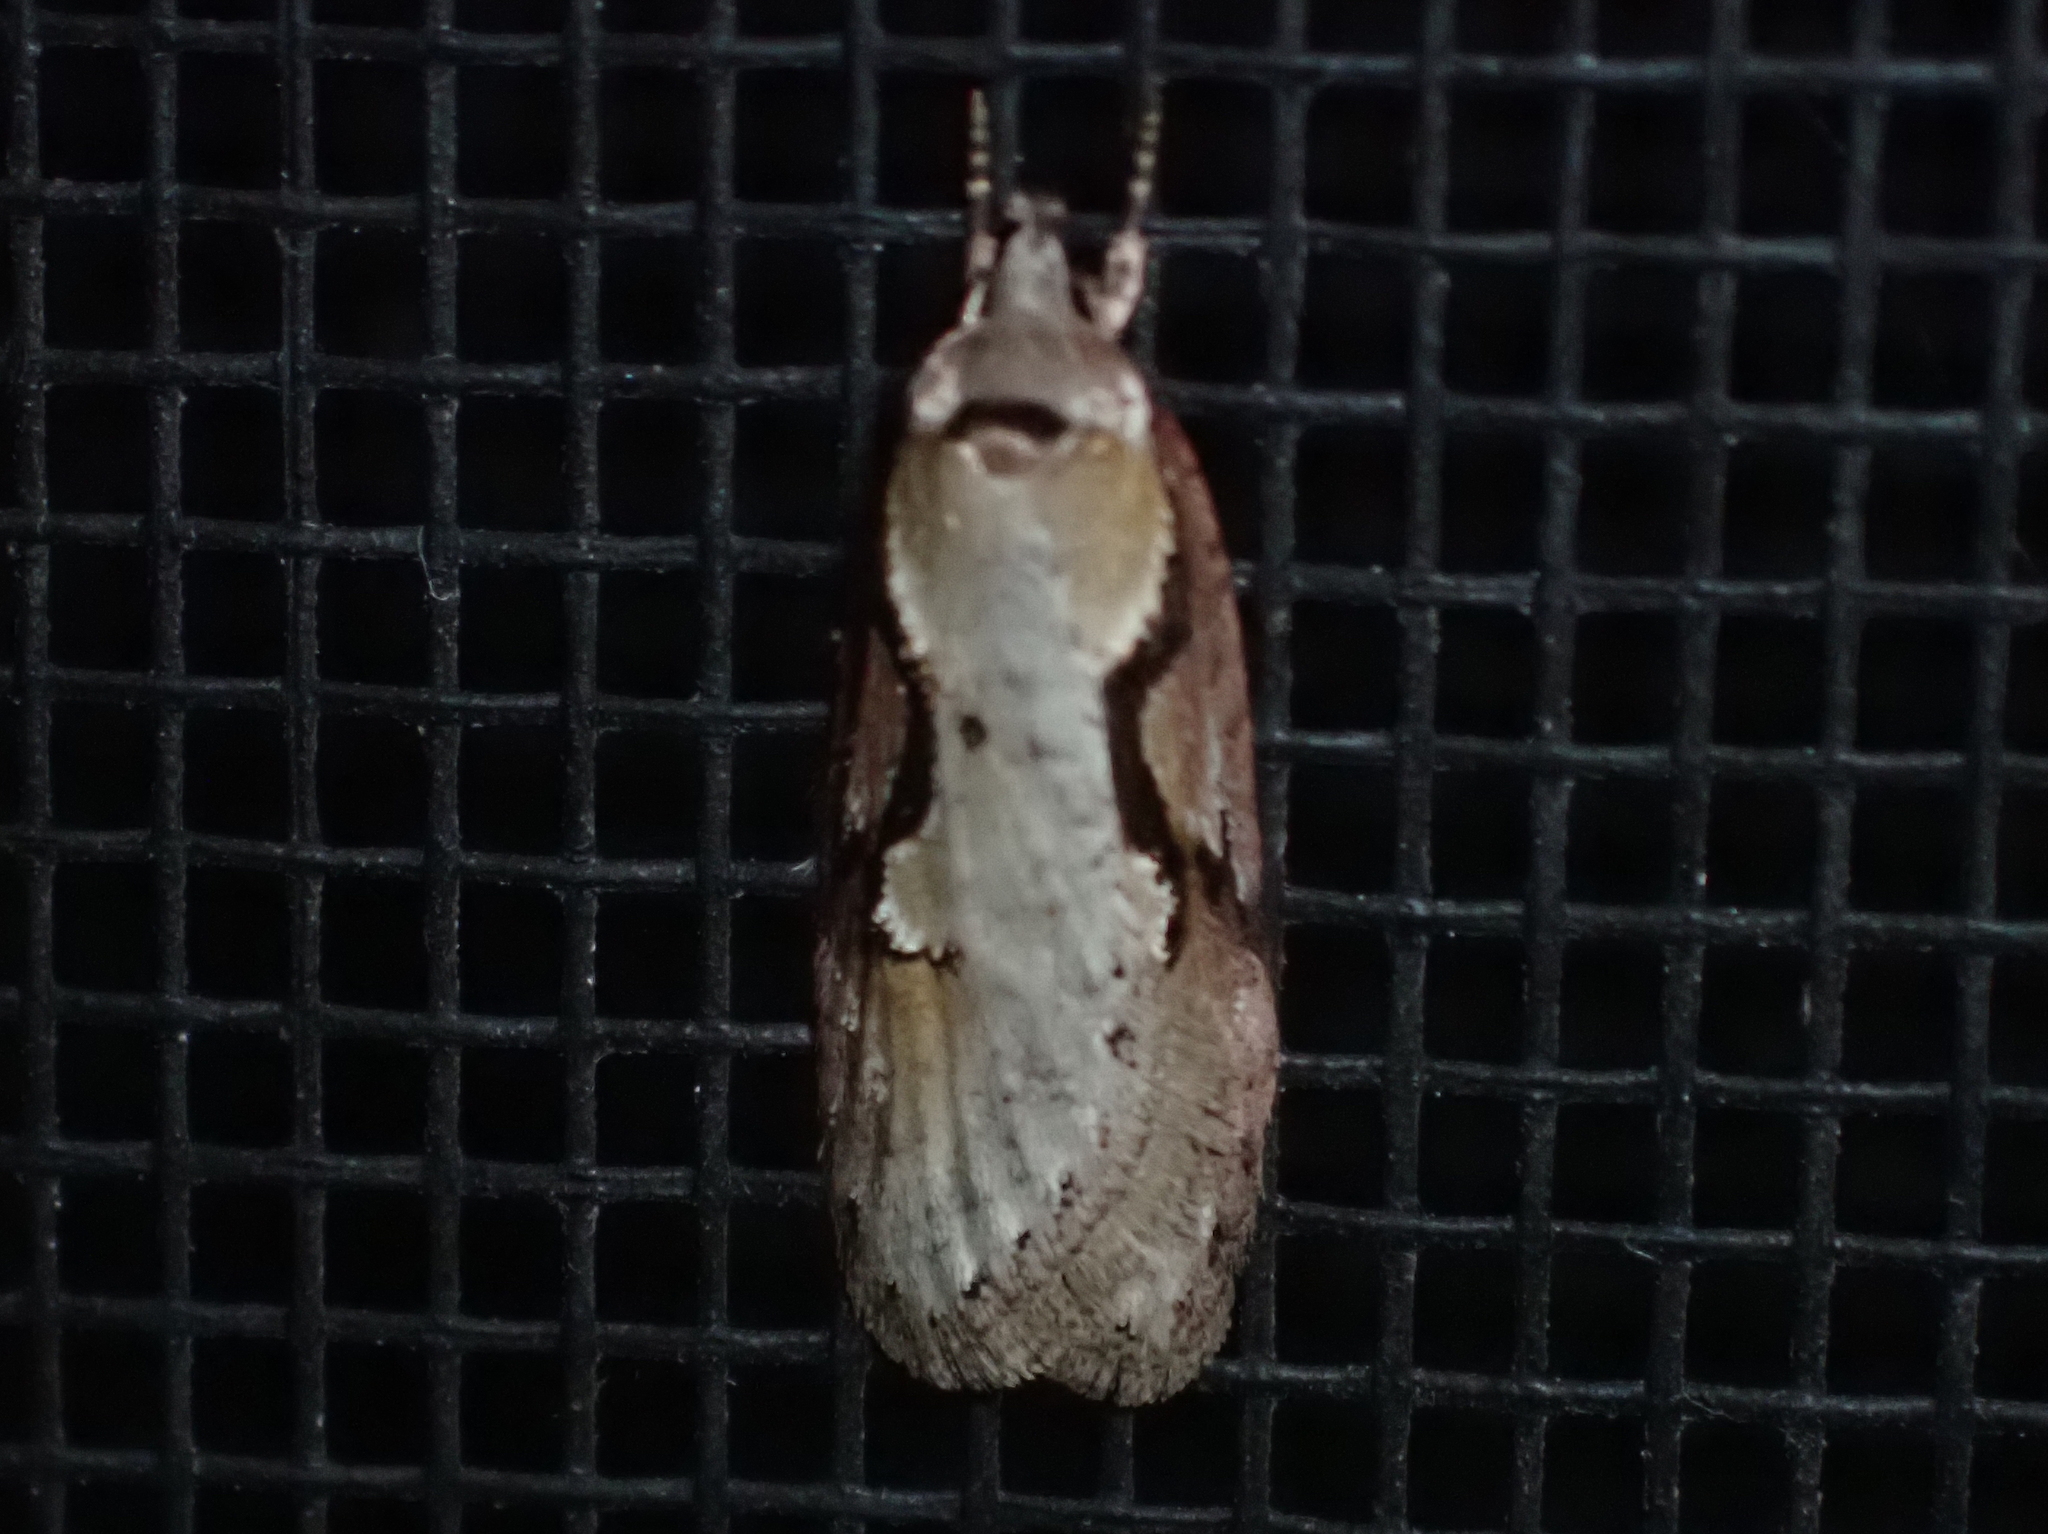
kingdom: Animalia
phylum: Arthropoda
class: Insecta
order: Lepidoptera
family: Depressariidae
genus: Semioscopis
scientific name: Semioscopis packardella
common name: Packard's concealer moth
